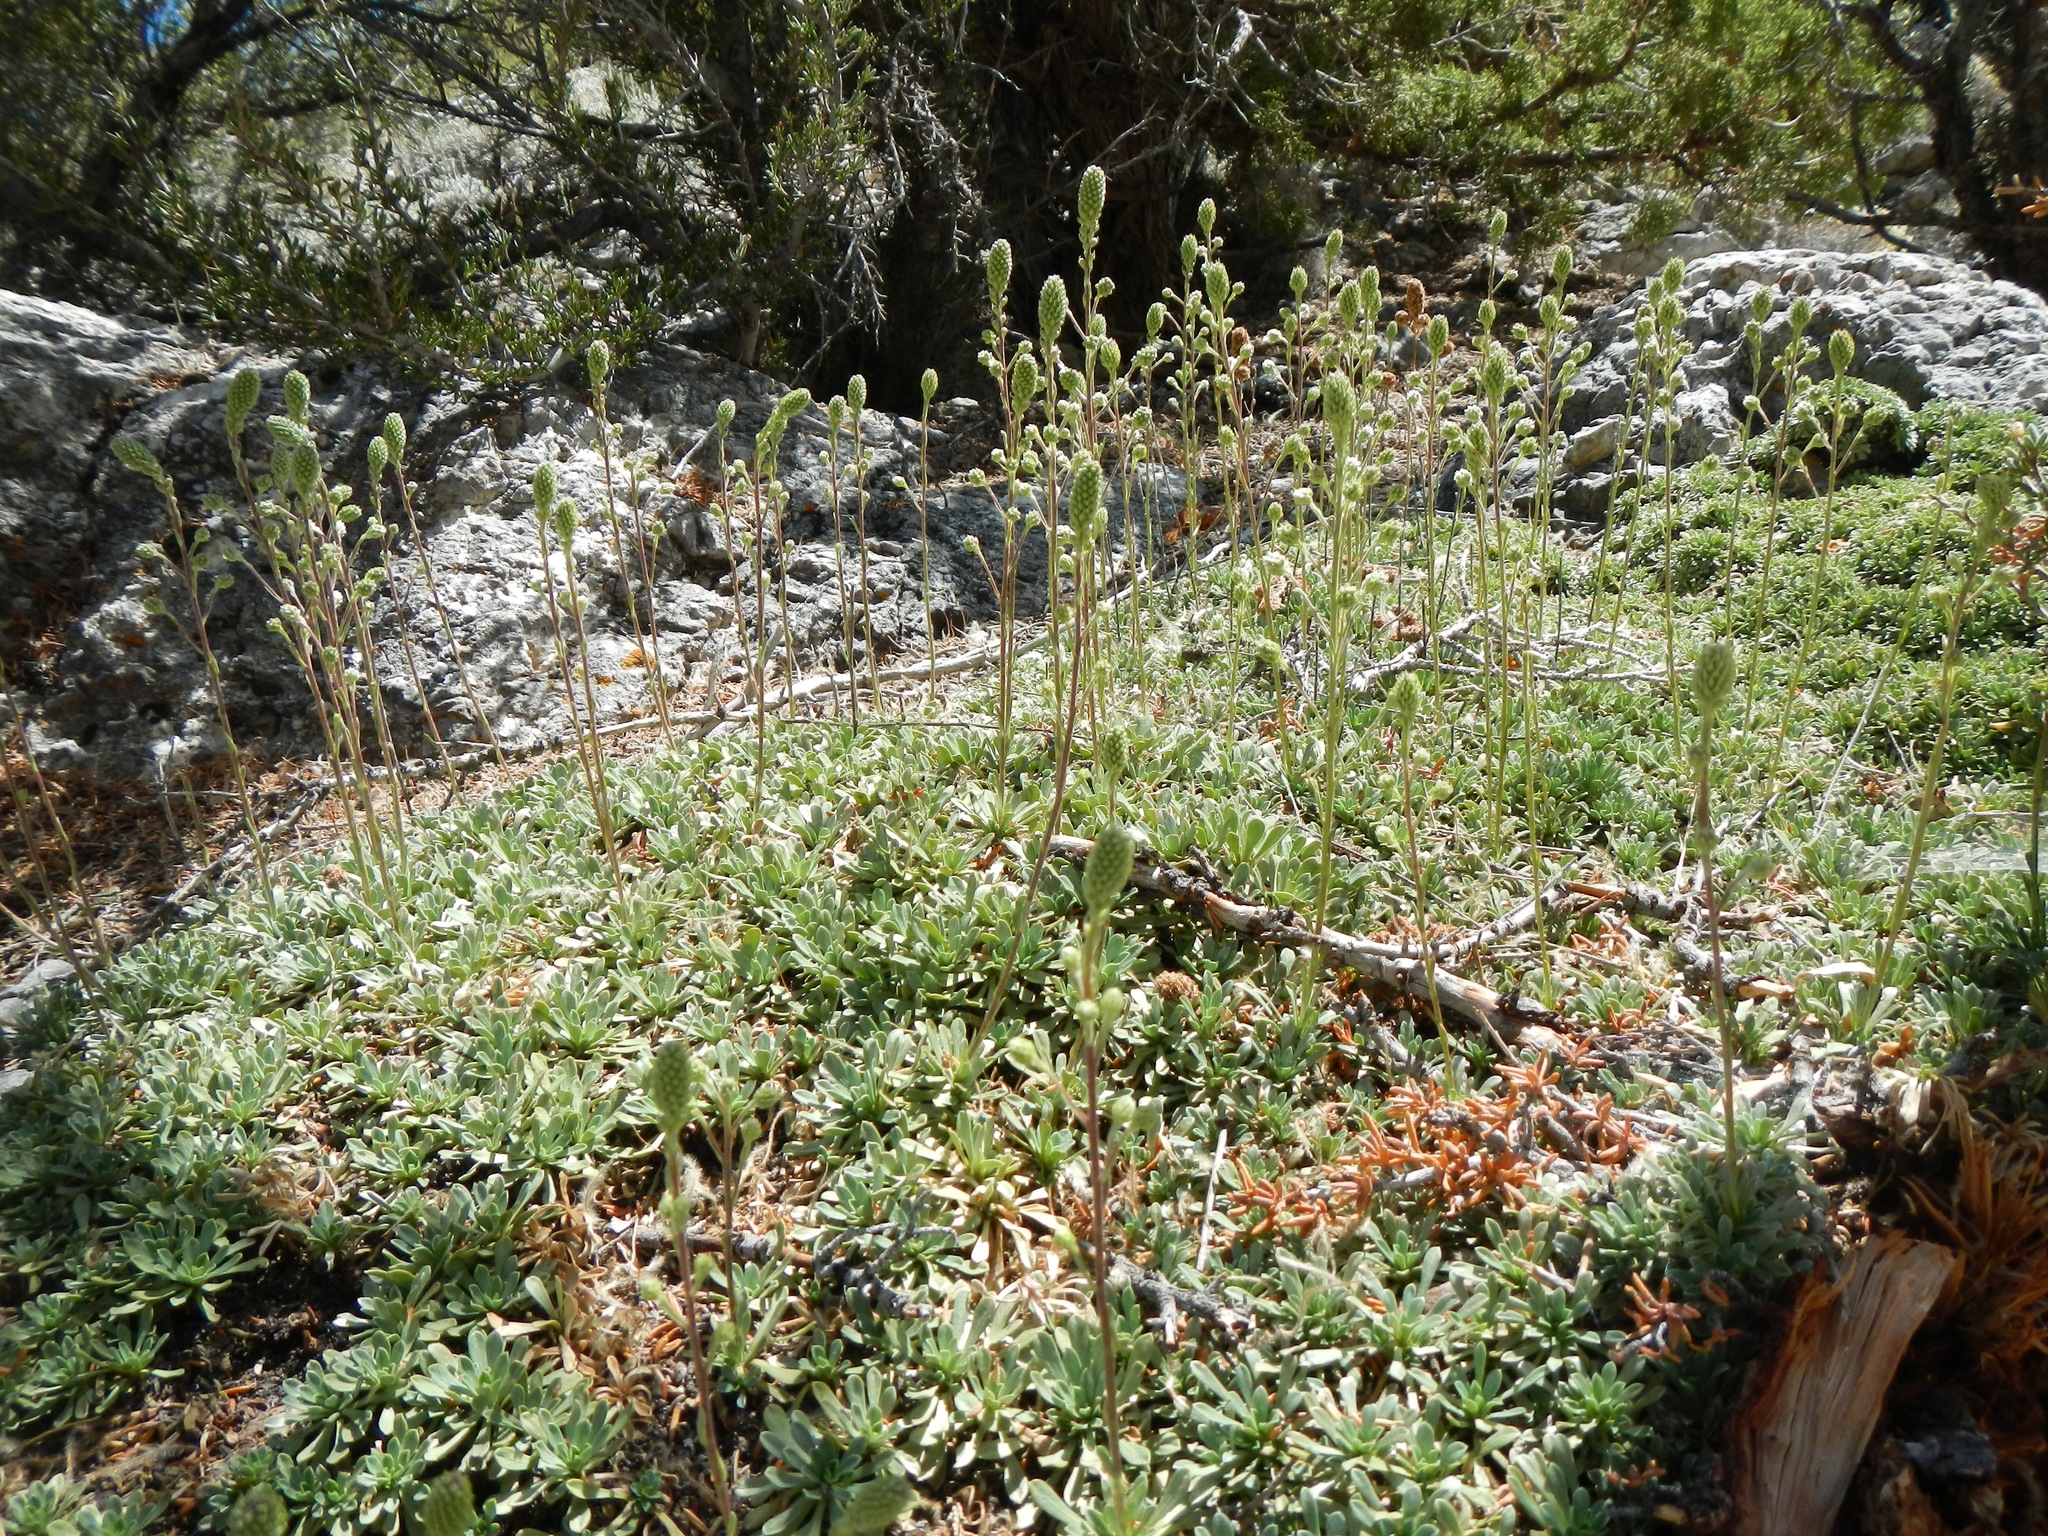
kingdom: Plantae
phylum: Tracheophyta
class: Magnoliopsida
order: Rosales
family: Rosaceae
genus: Petrophytum
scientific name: Petrophytum caespitosum
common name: Mat rockspirea
